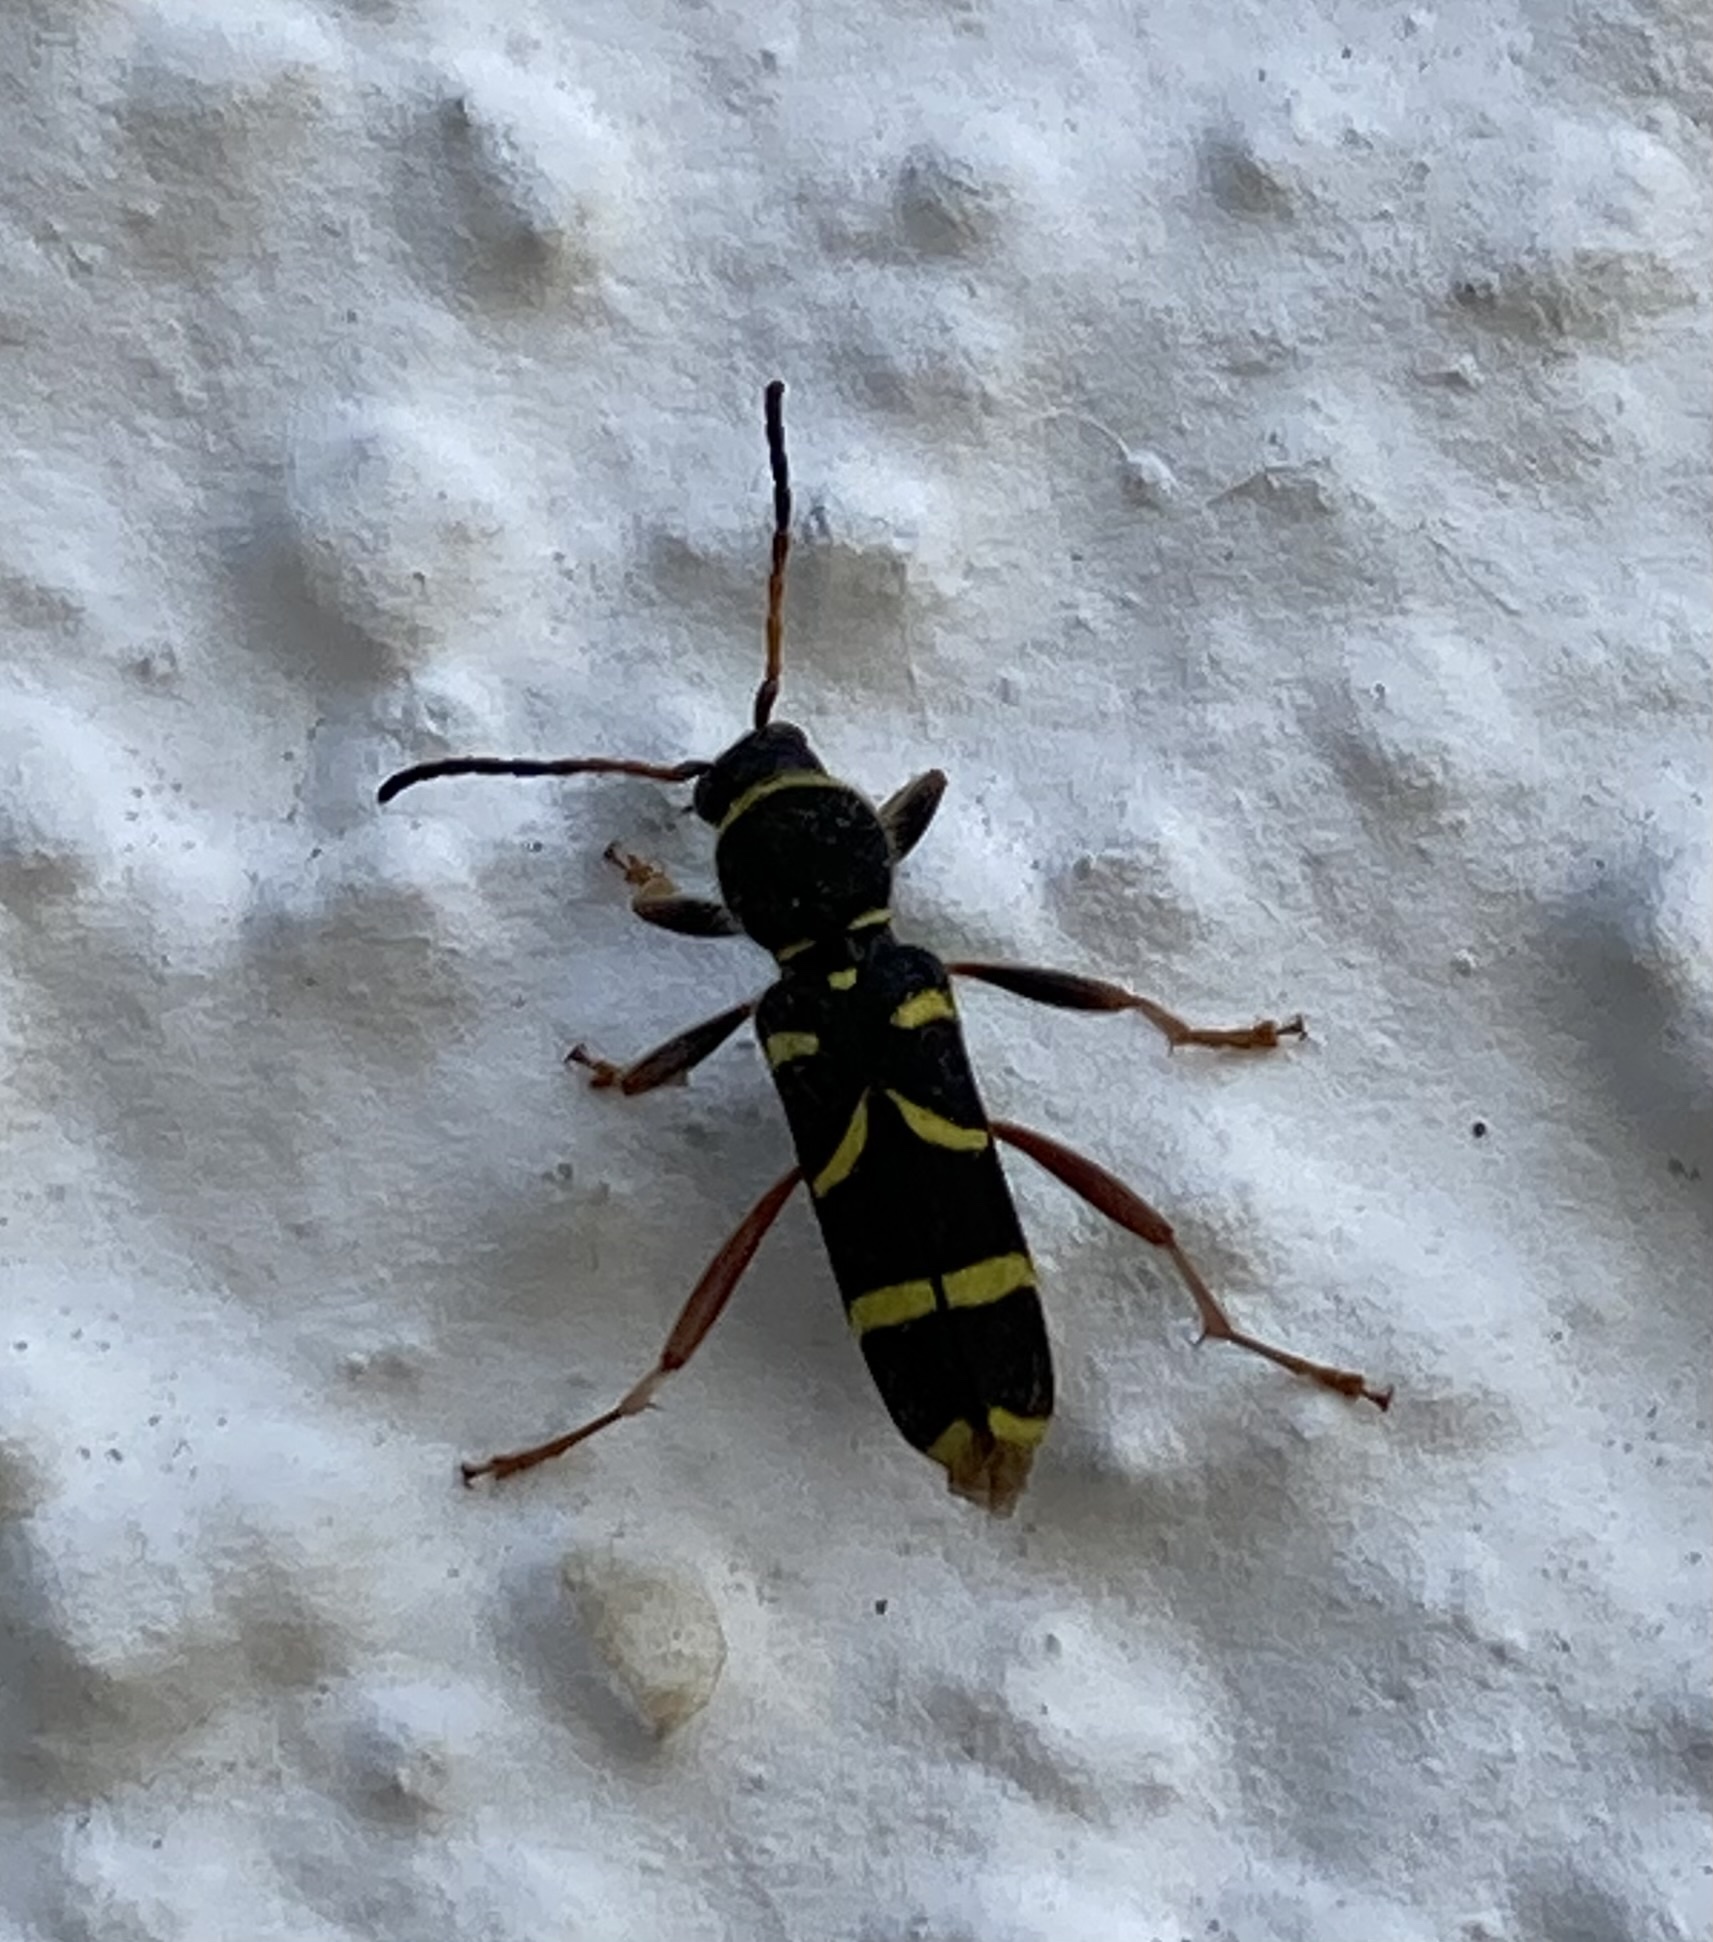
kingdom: Animalia
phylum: Arthropoda
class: Insecta
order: Coleoptera
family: Cerambycidae
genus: Clytus
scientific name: Clytus arietis
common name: Wasp beetle
